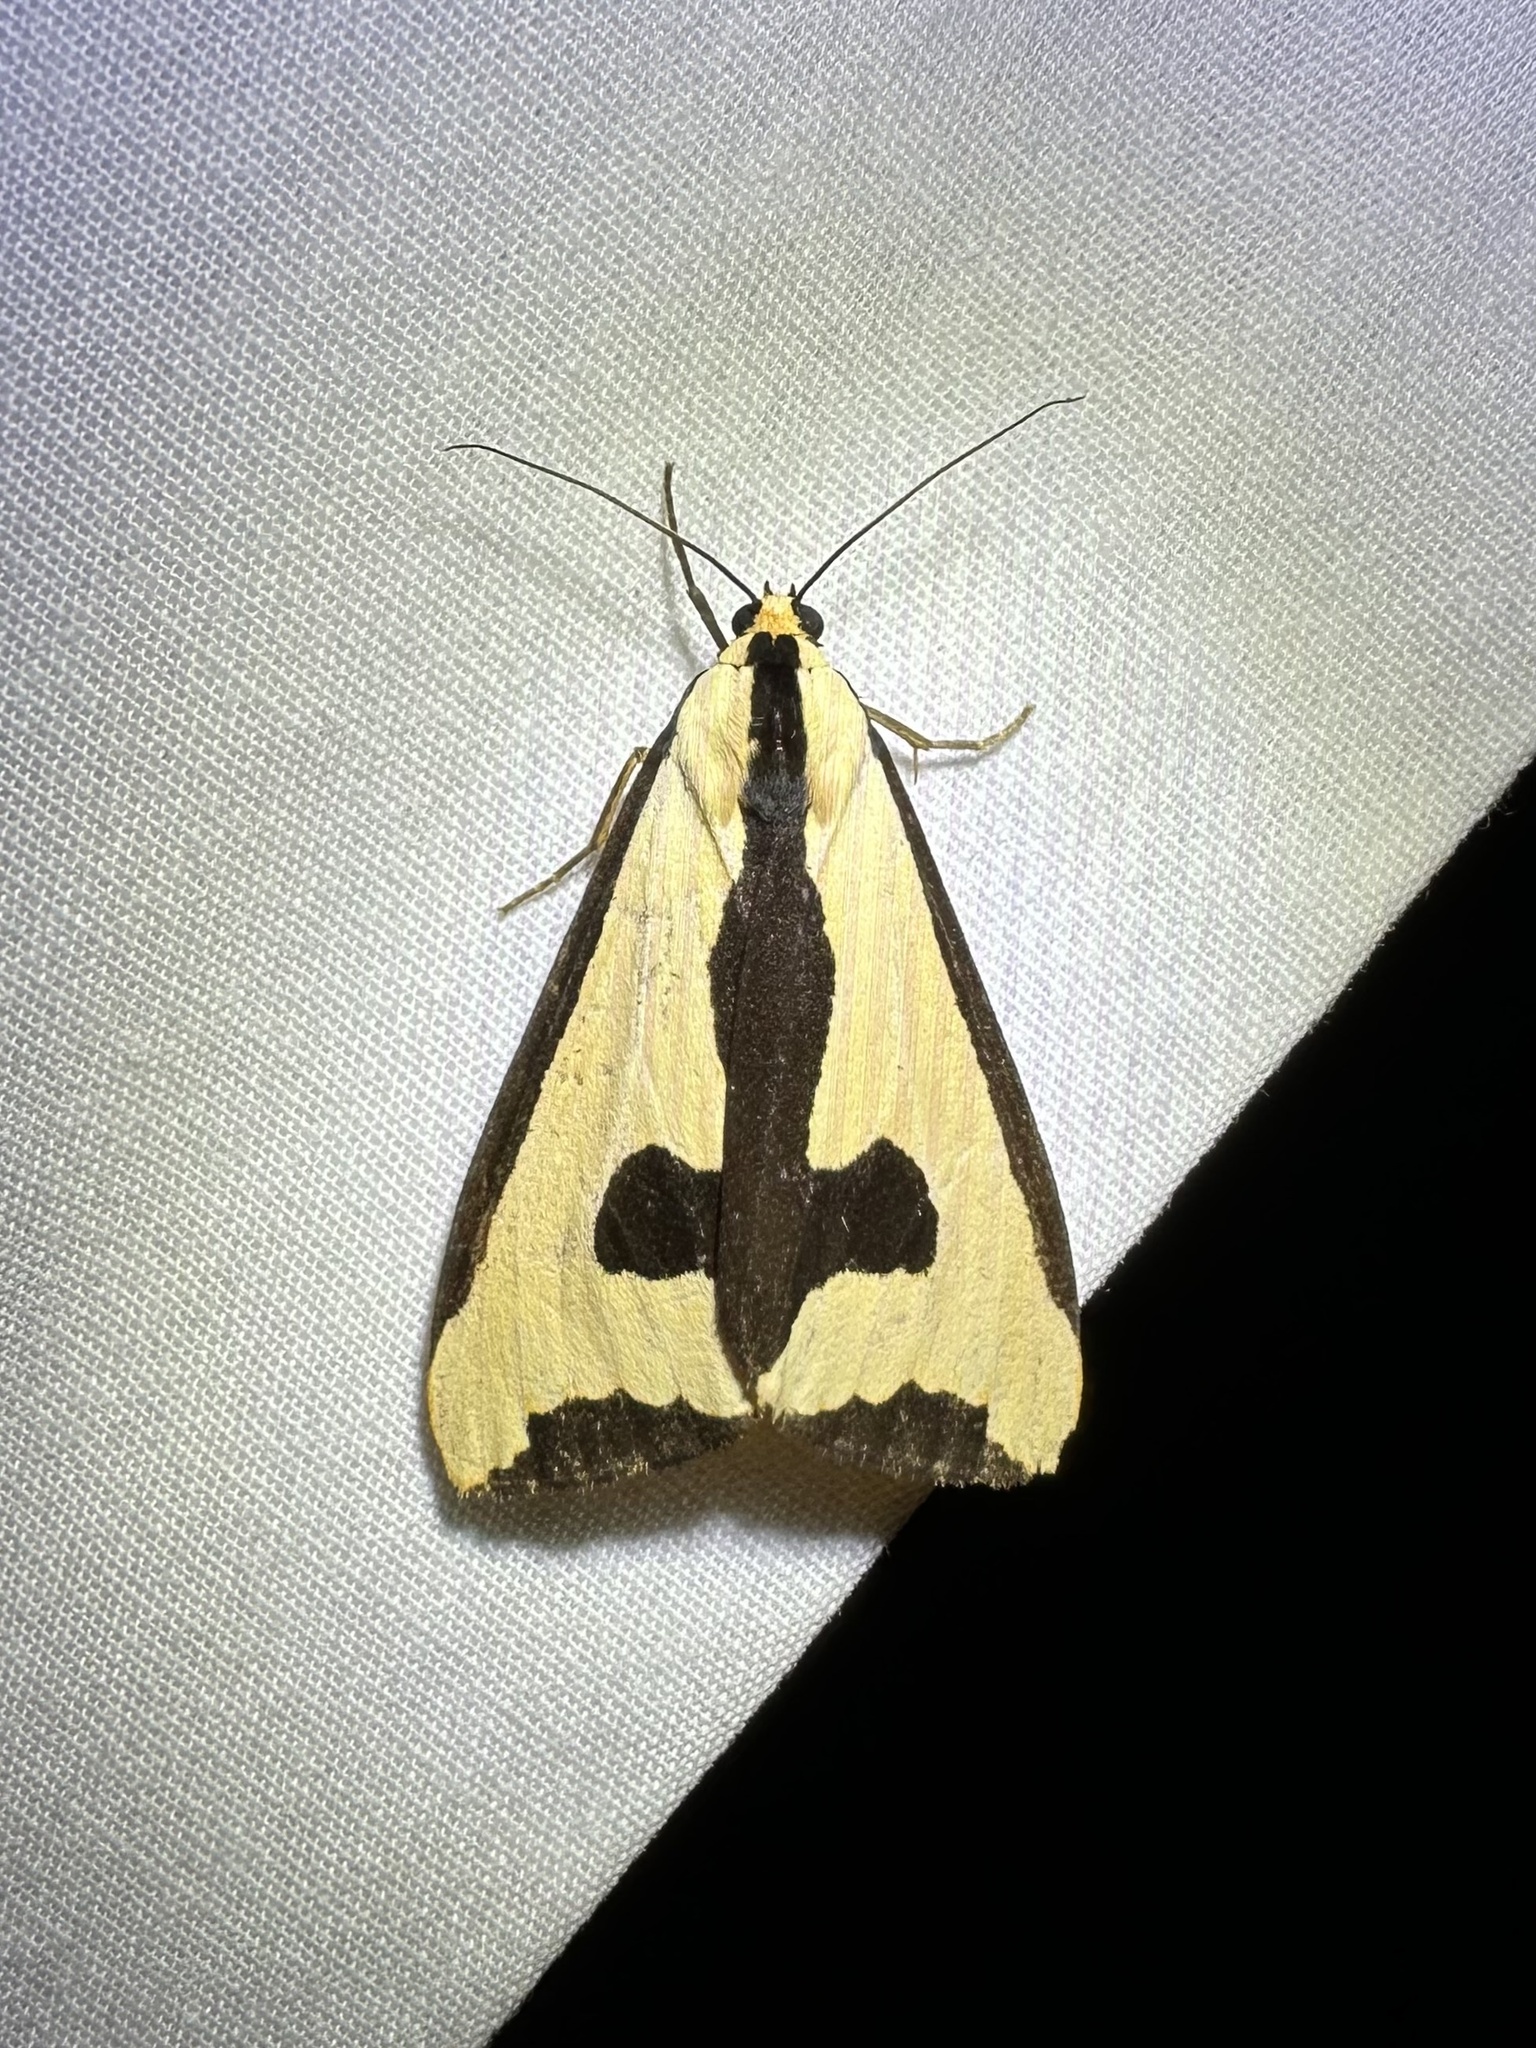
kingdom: Animalia
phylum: Arthropoda
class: Insecta
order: Lepidoptera
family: Erebidae
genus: Haploa
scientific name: Haploa clymene
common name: Clymene moth
